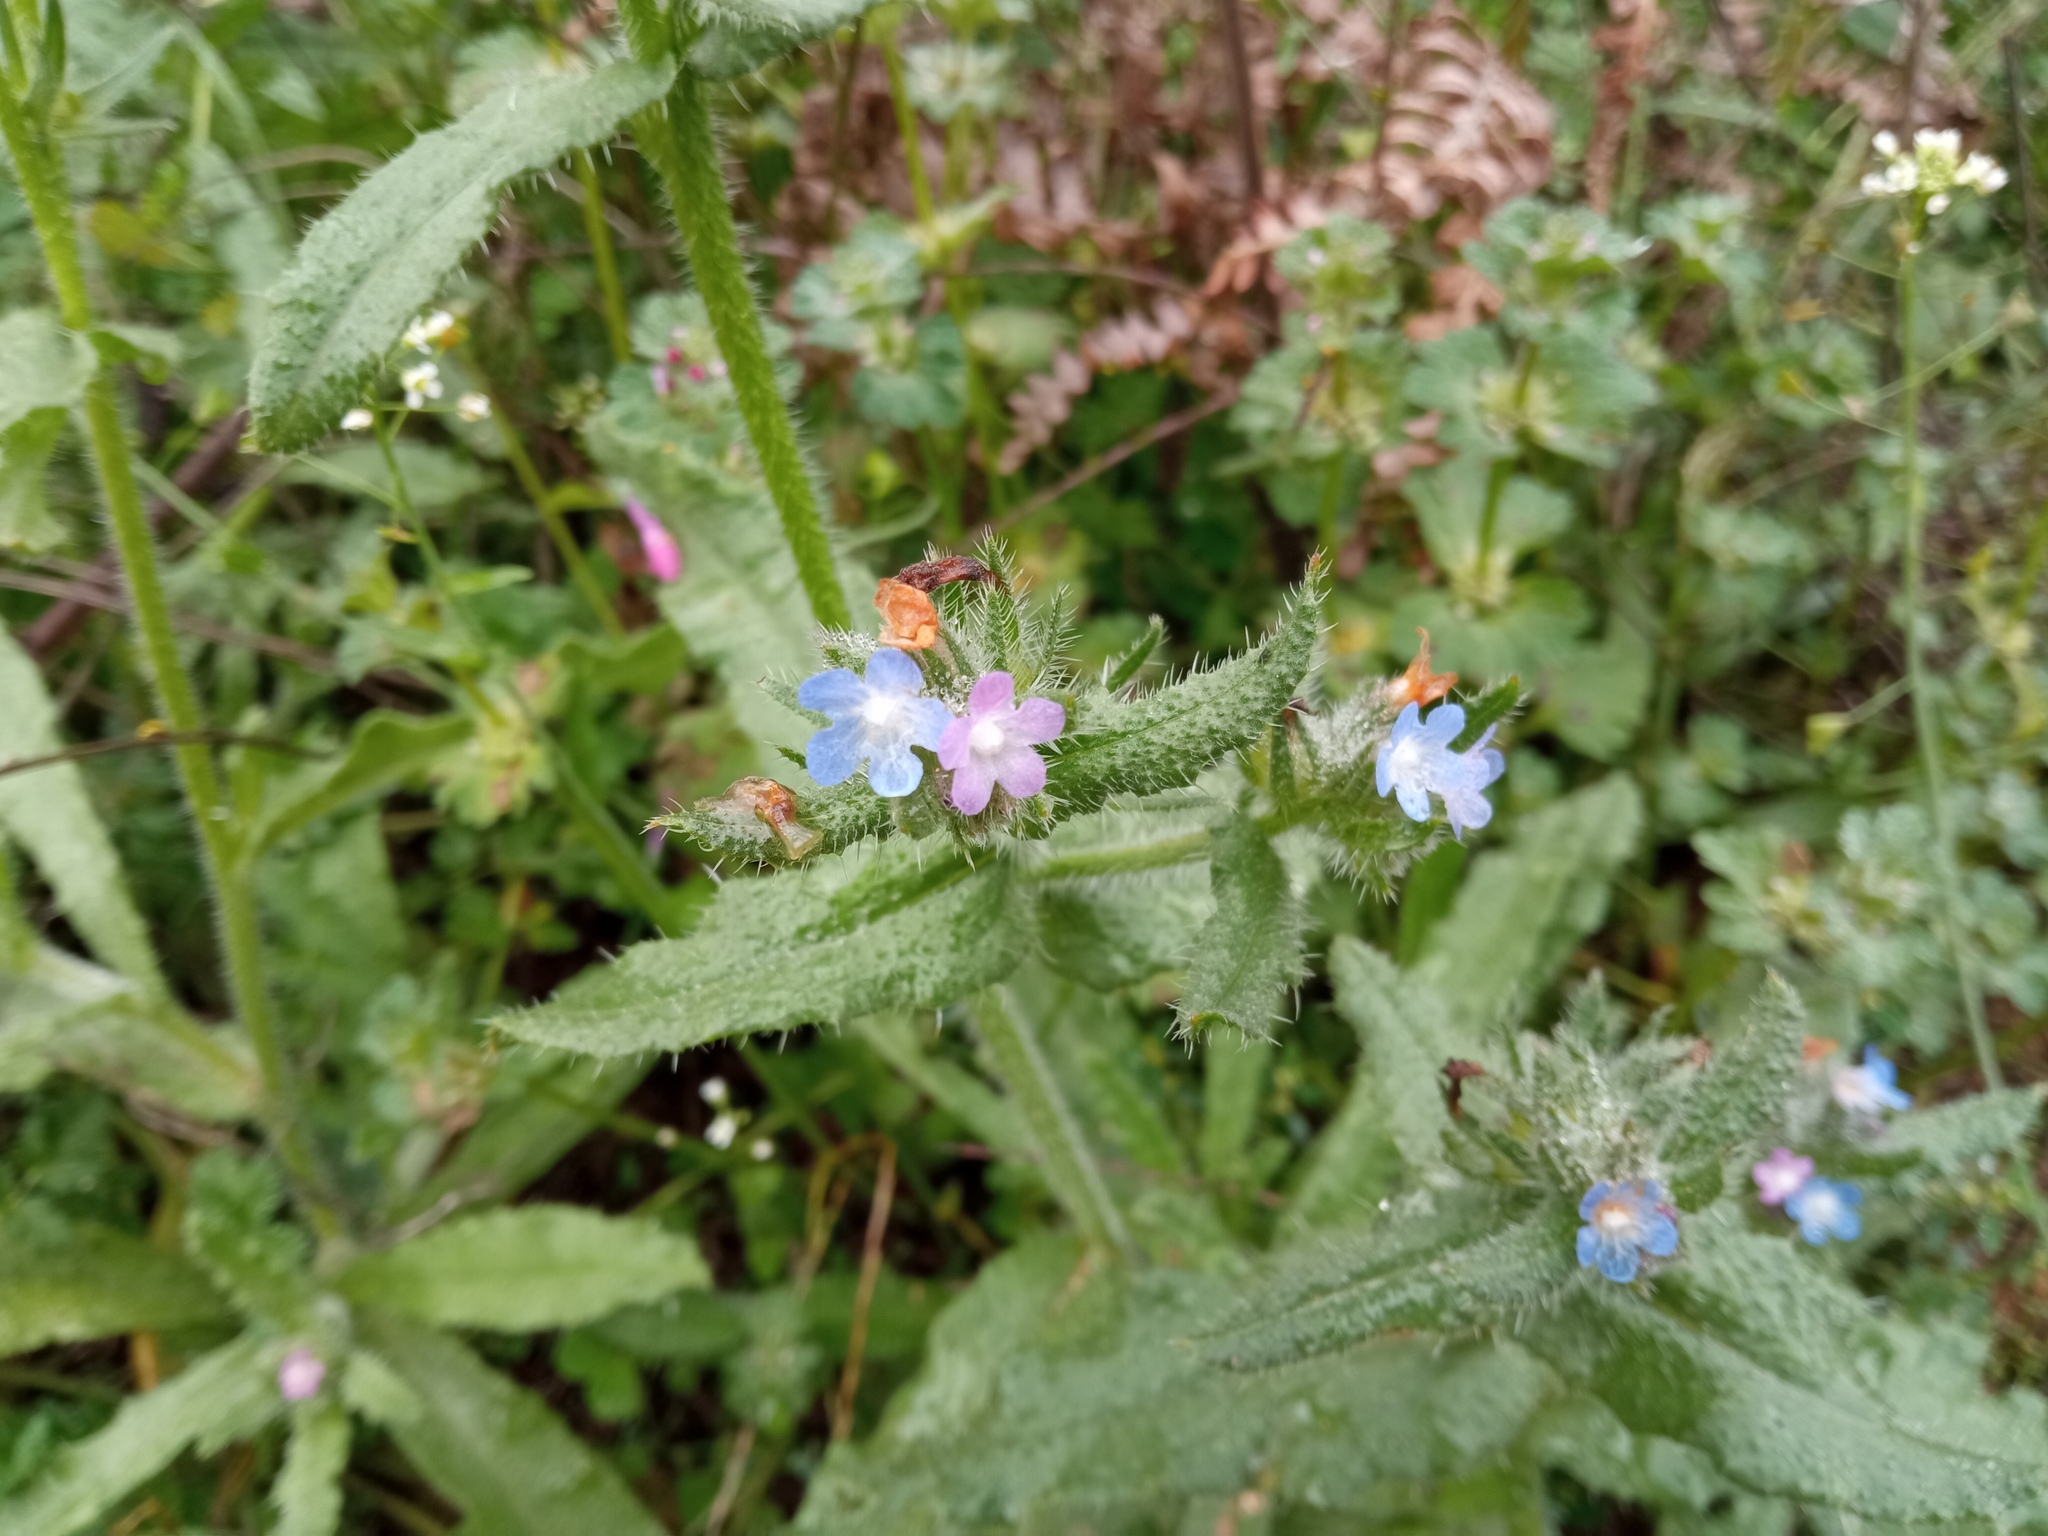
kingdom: Plantae
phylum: Tracheophyta
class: Magnoliopsida
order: Boraginales
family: Boraginaceae
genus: Lycopsis
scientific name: Lycopsis arvensis
